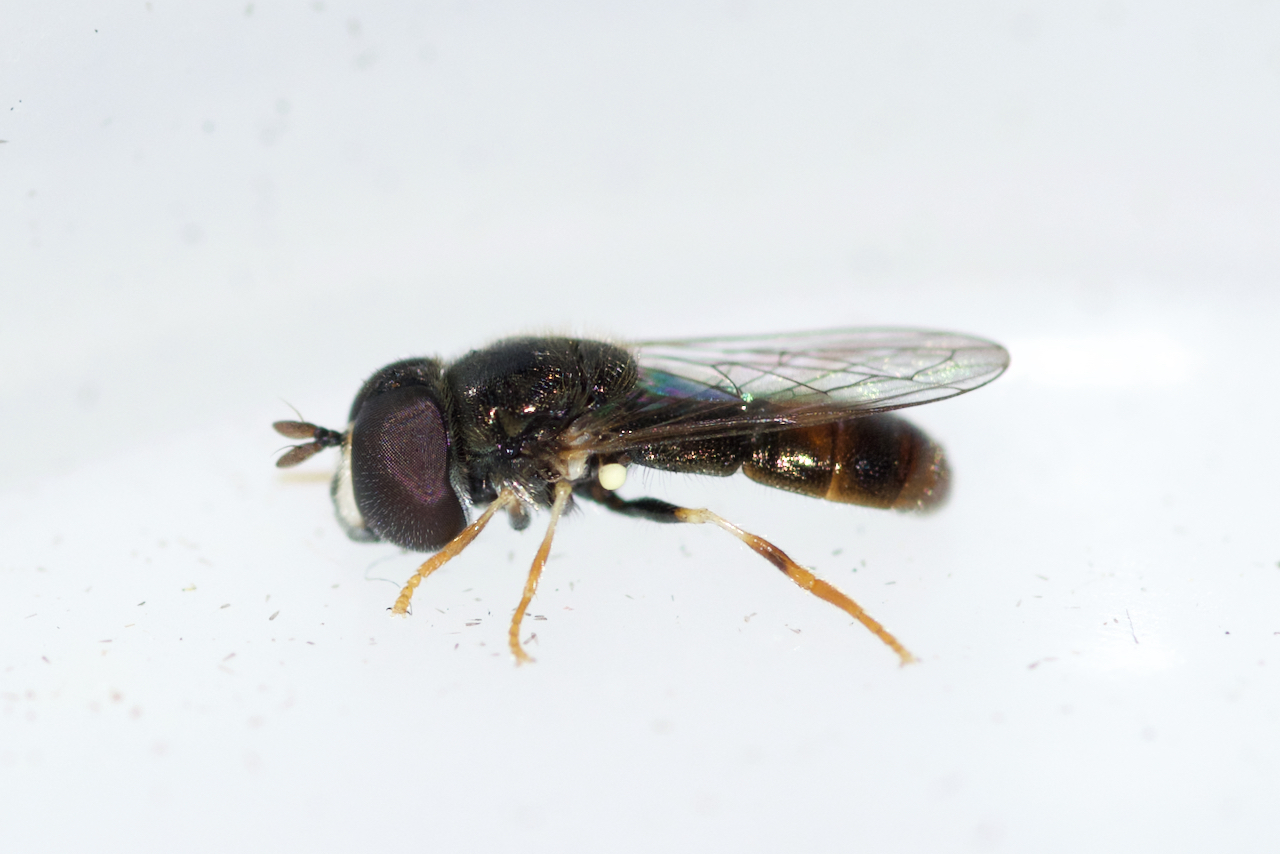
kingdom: Animalia
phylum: Arthropoda
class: Insecta
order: Diptera
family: Syrphidae
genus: Paragus
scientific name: Paragus haemorrhous
